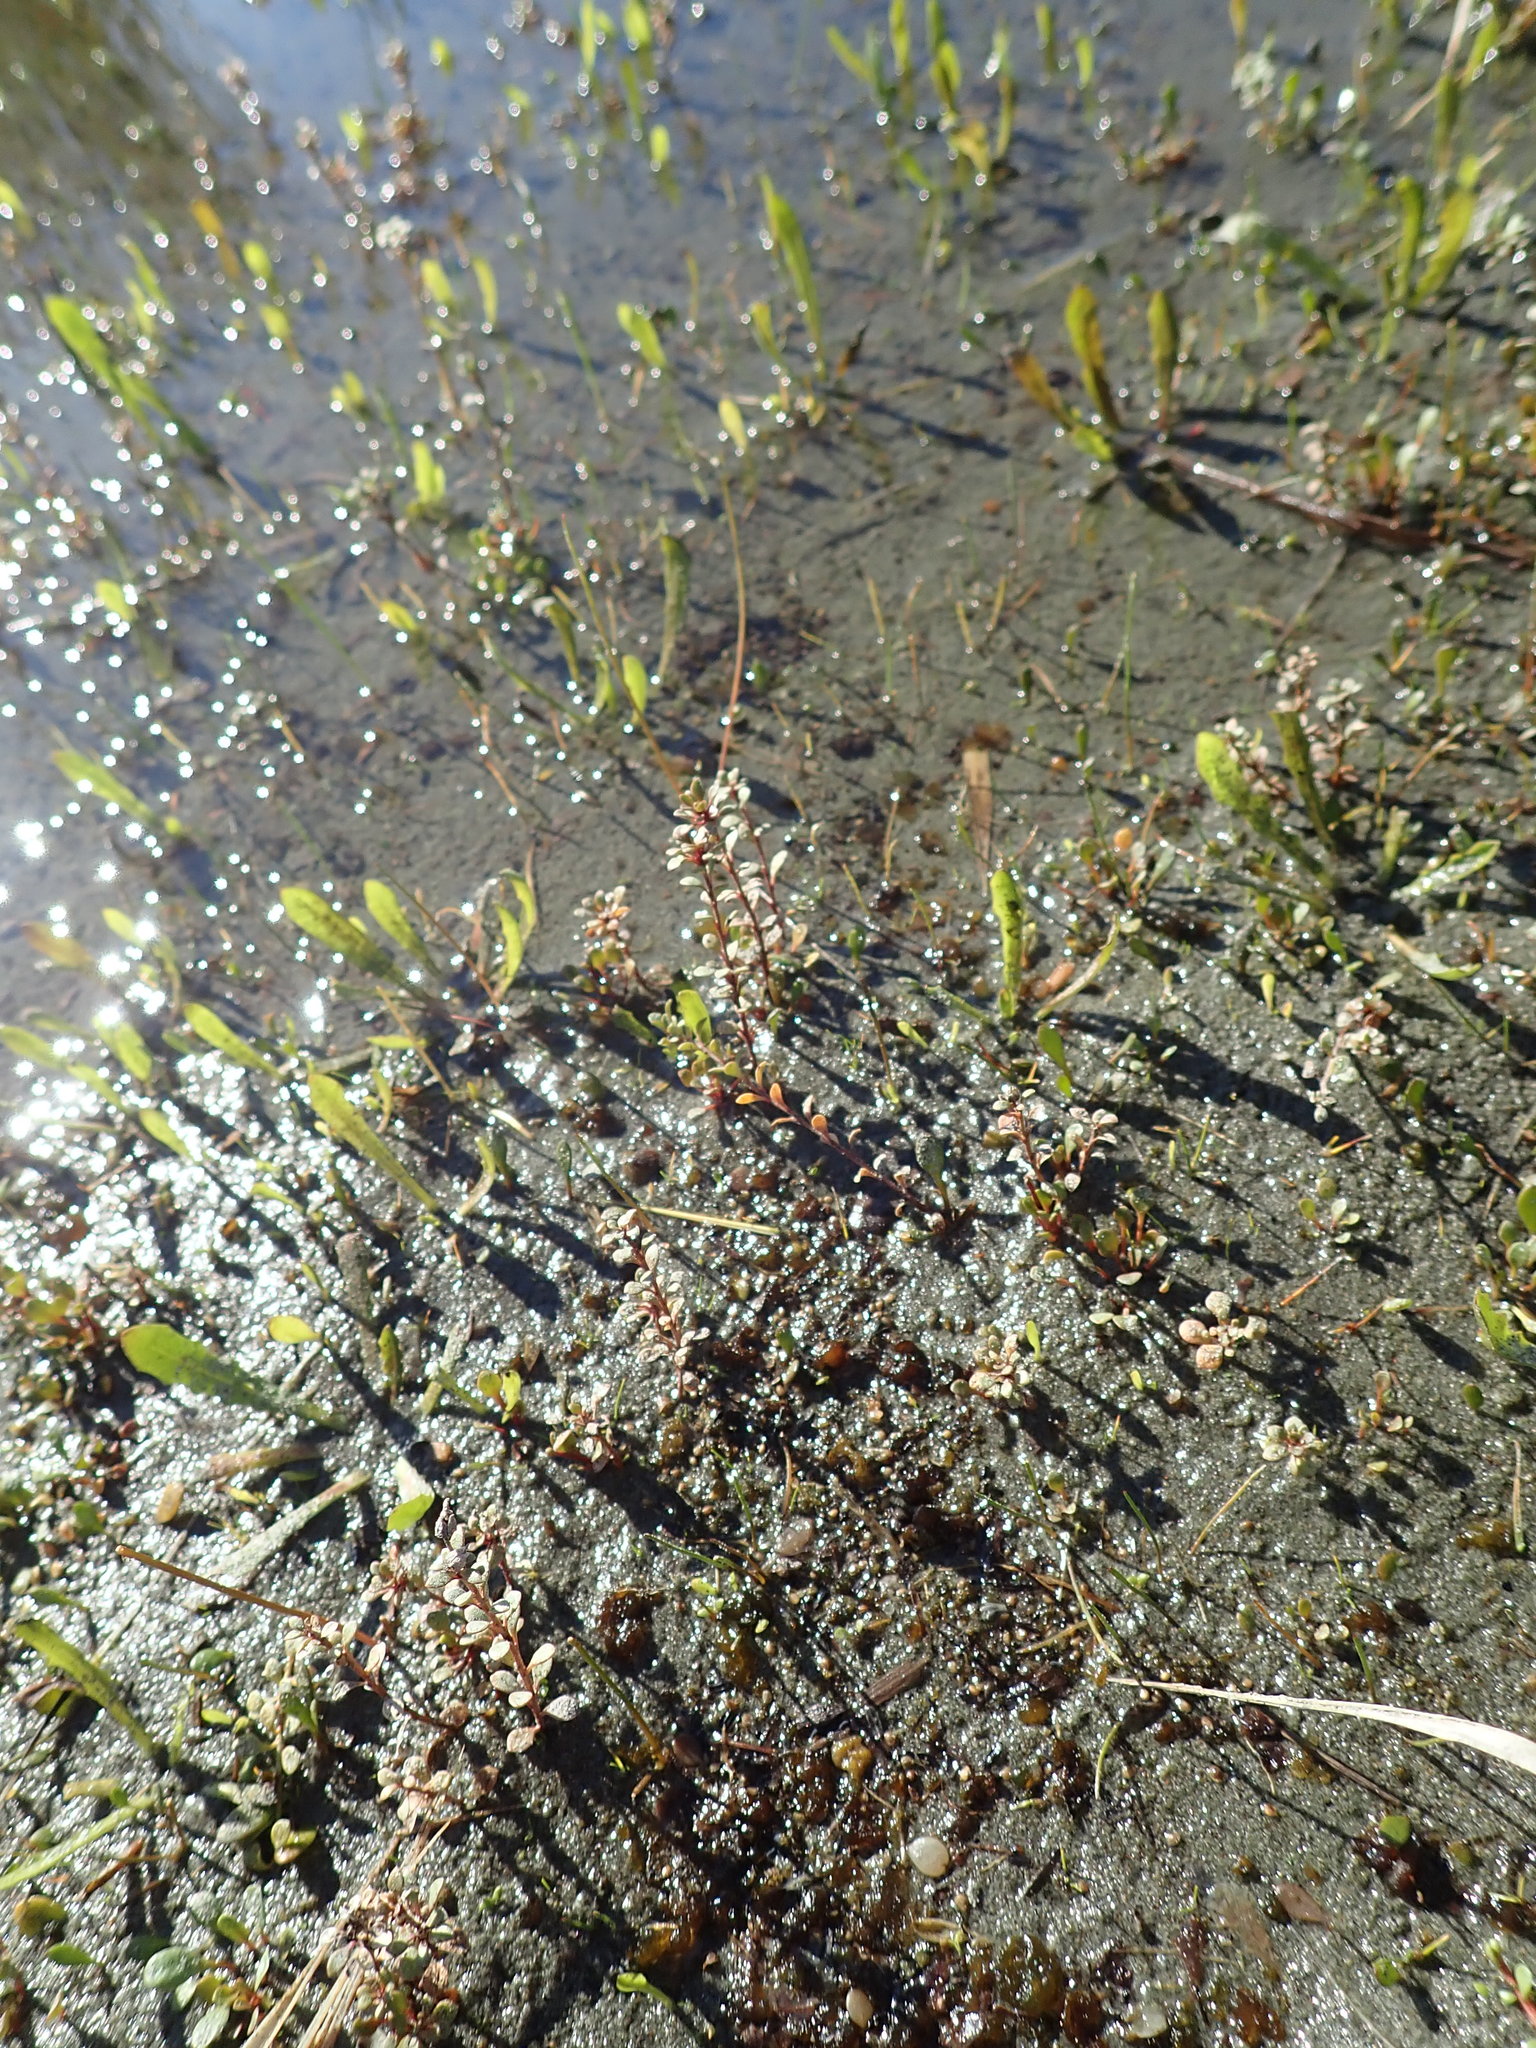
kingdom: Plantae
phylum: Tracheophyta
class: Magnoliopsida
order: Ericales
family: Primulaceae
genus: Samolus
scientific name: Samolus repens
